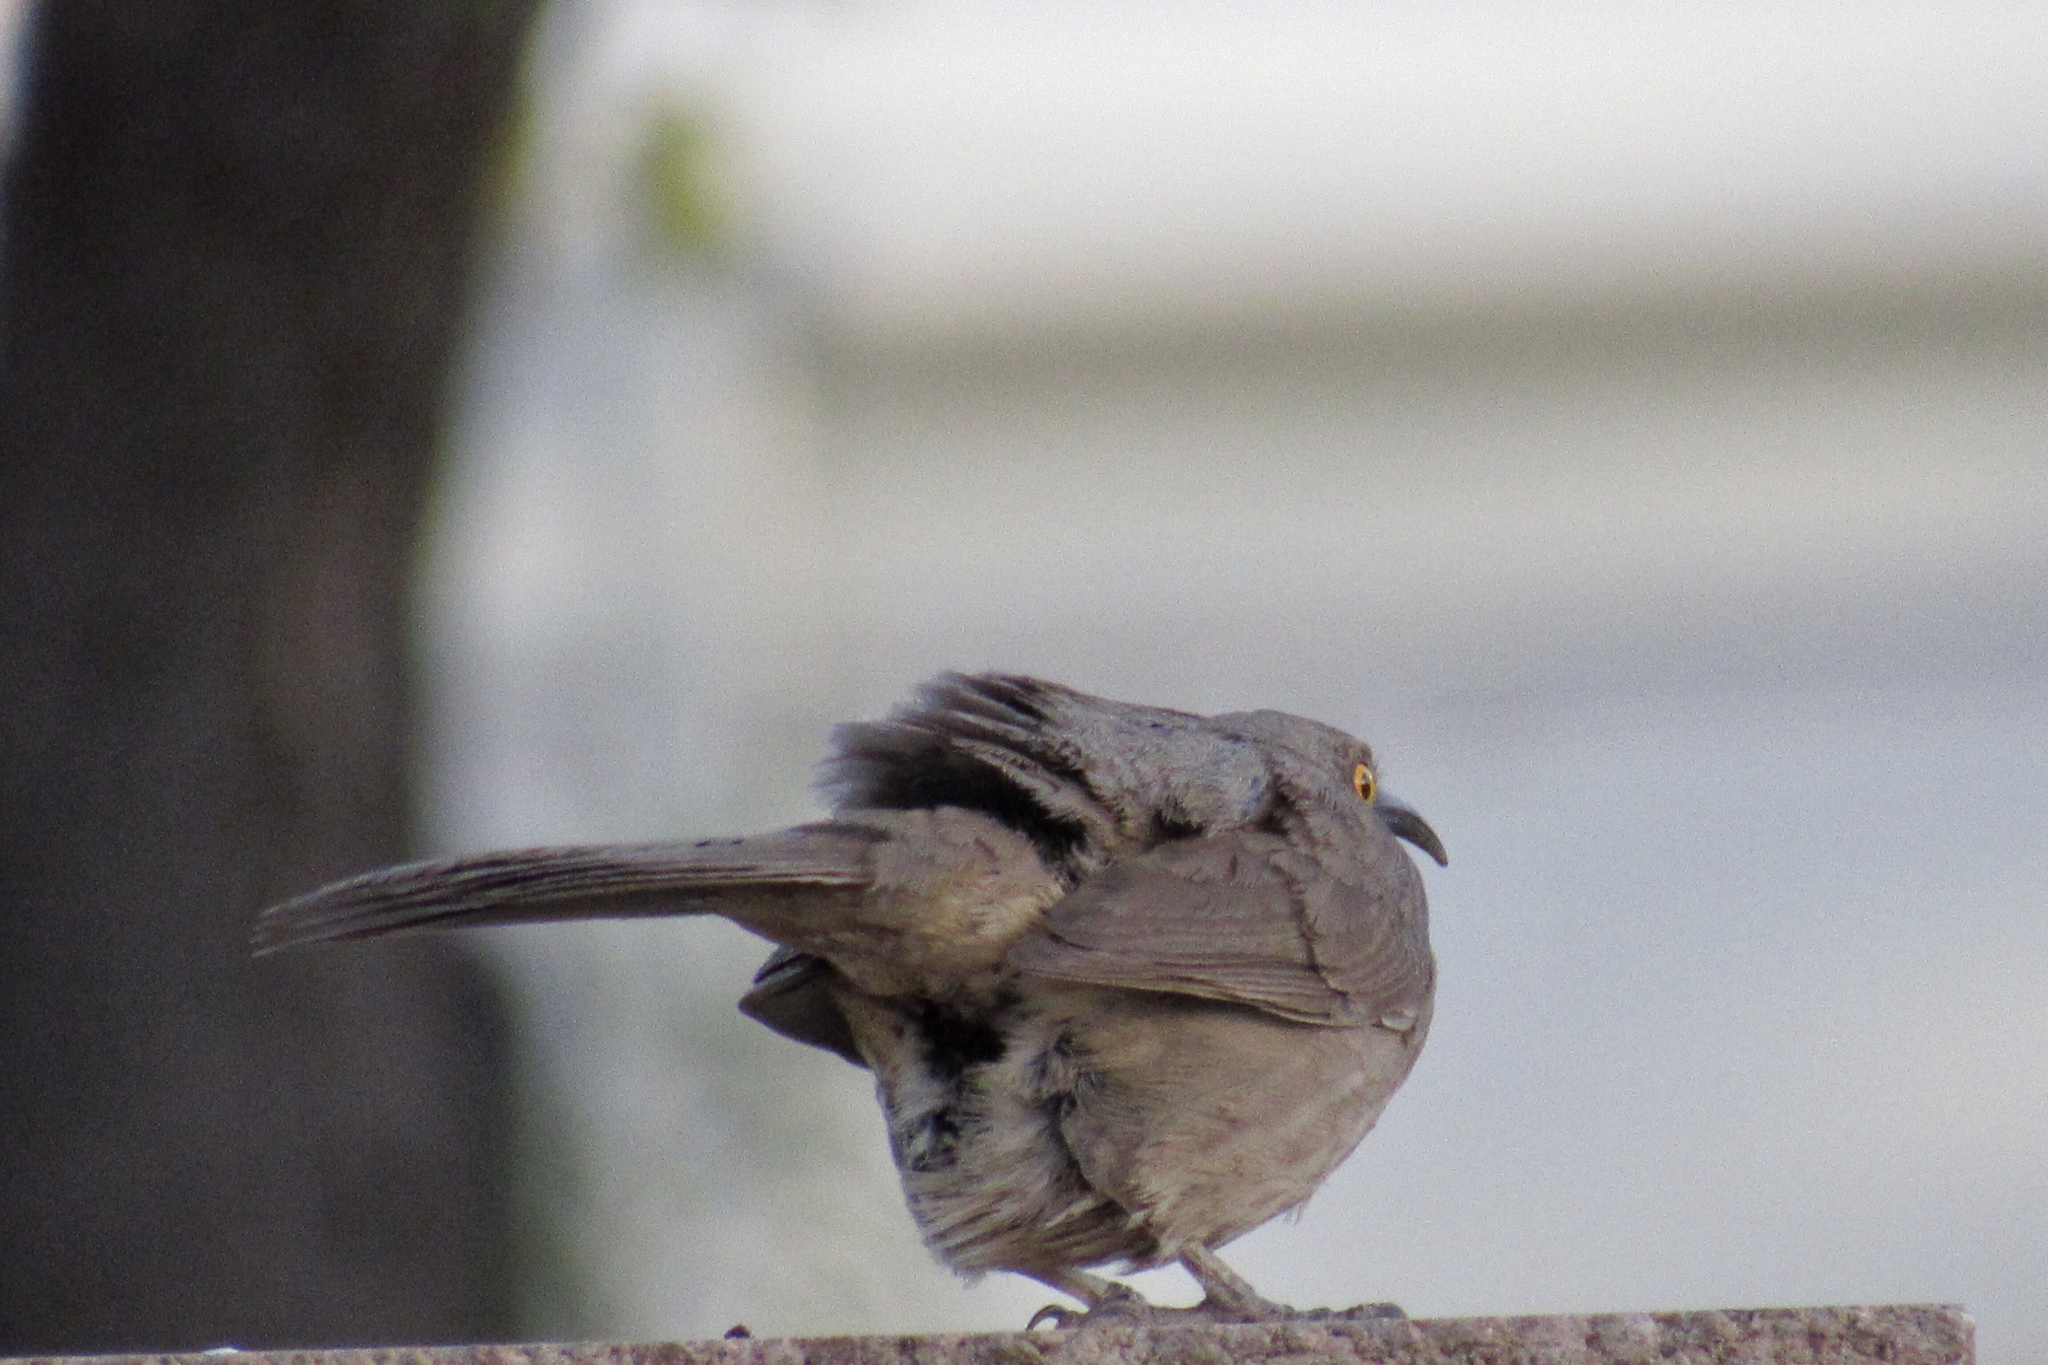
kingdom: Animalia
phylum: Chordata
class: Aves
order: Passeriformes
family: Mimidae
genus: Toxostoma
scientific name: Toxostoma curvirostre
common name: Curve-billed thrasher
